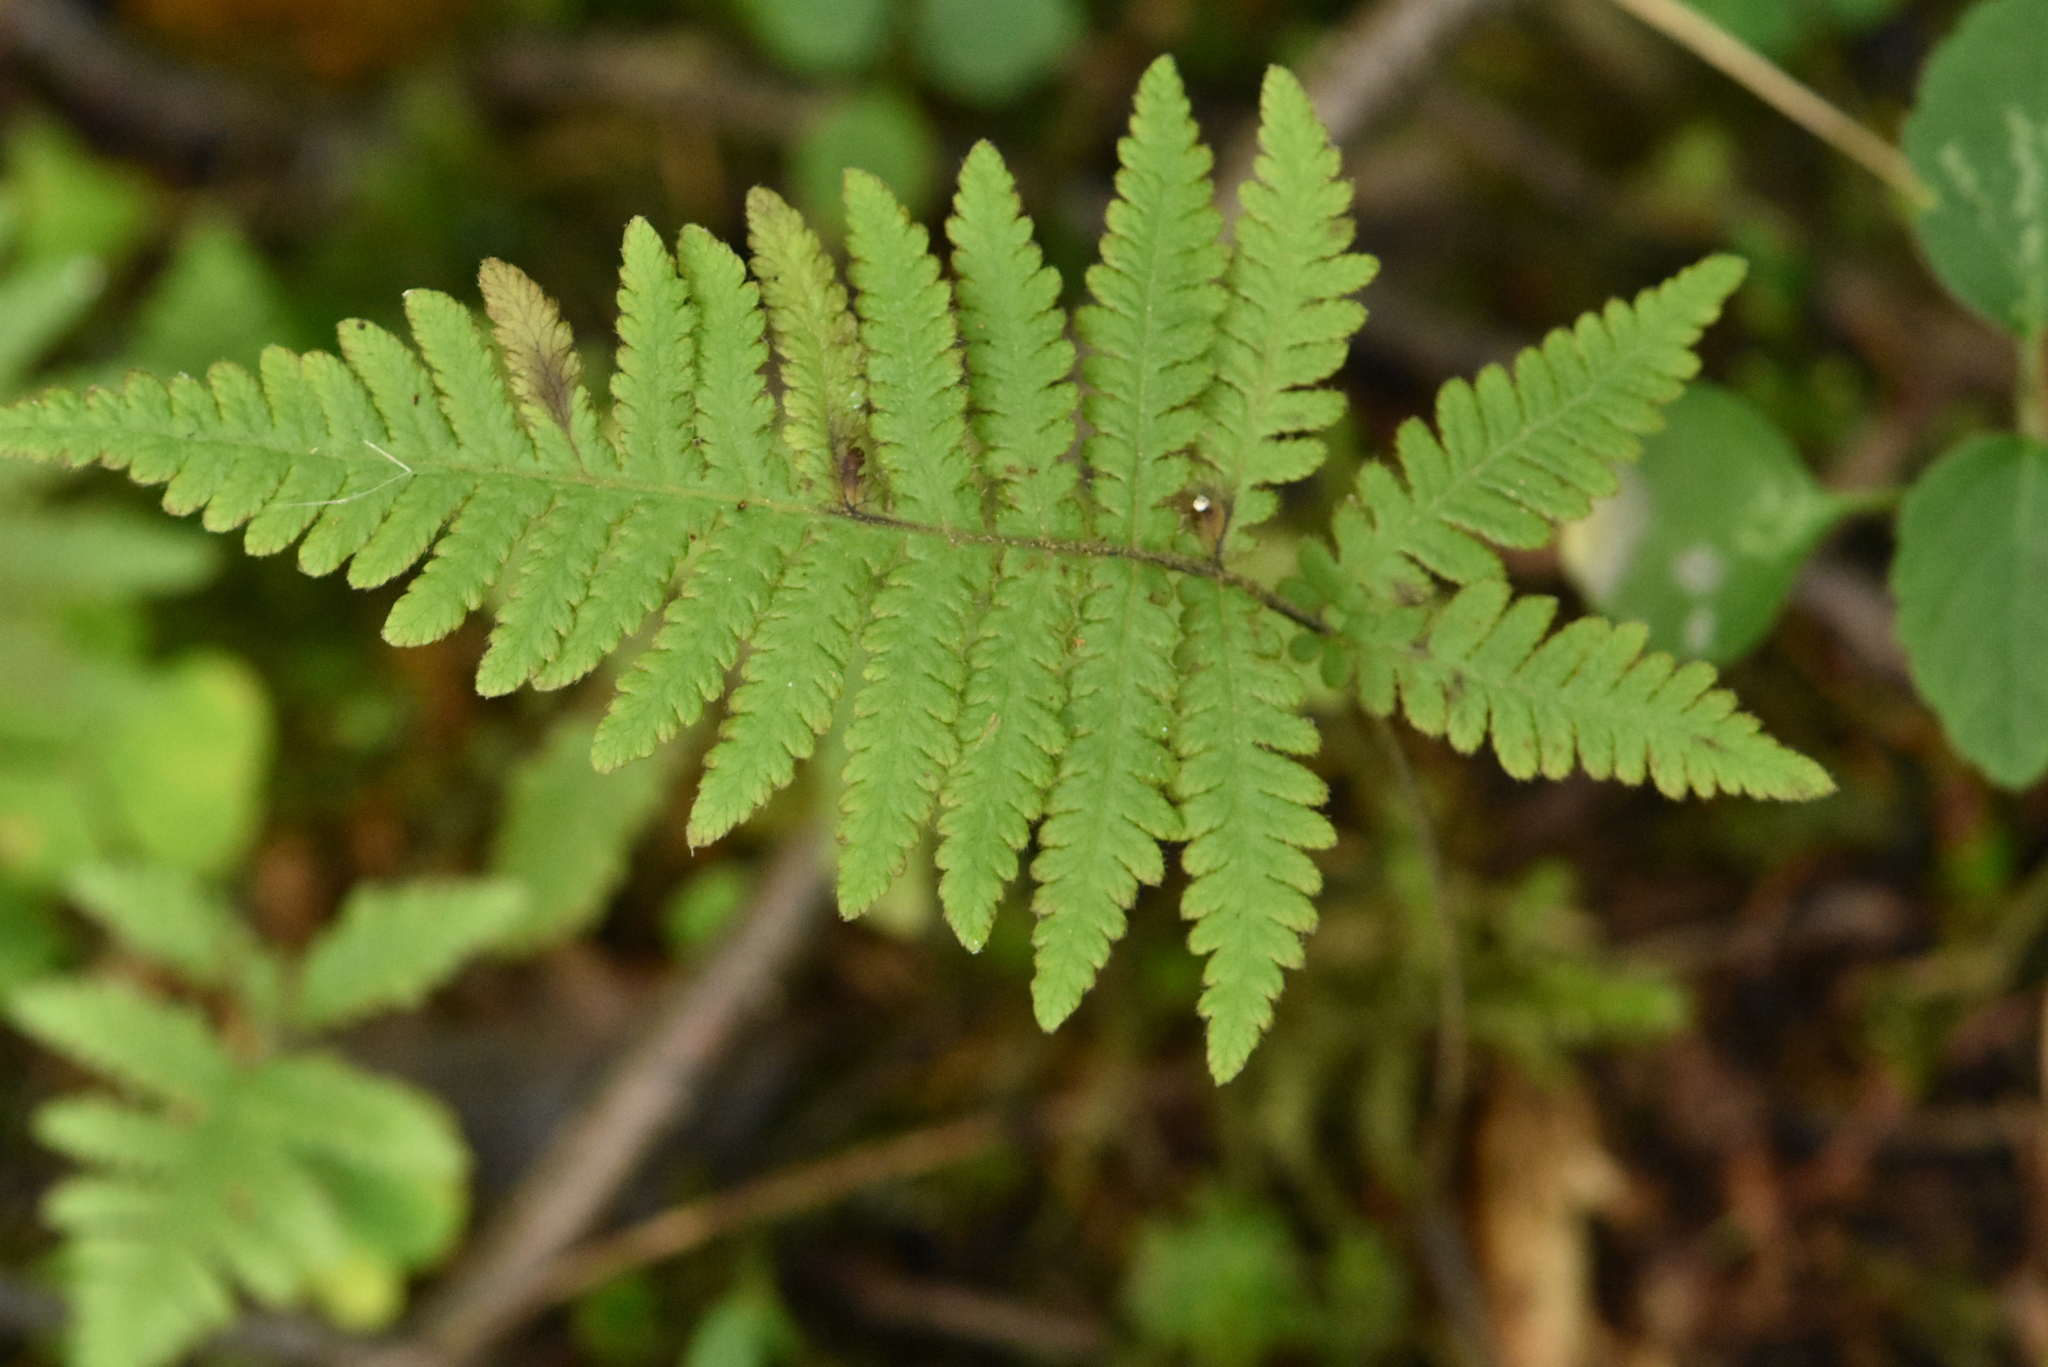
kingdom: Plantae
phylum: Tracheophyta
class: Polypodiopsida
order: Polypodiales
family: Thelypteridaceae
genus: Phegopteris
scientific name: Phegopteris connectilis
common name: Beech fern
